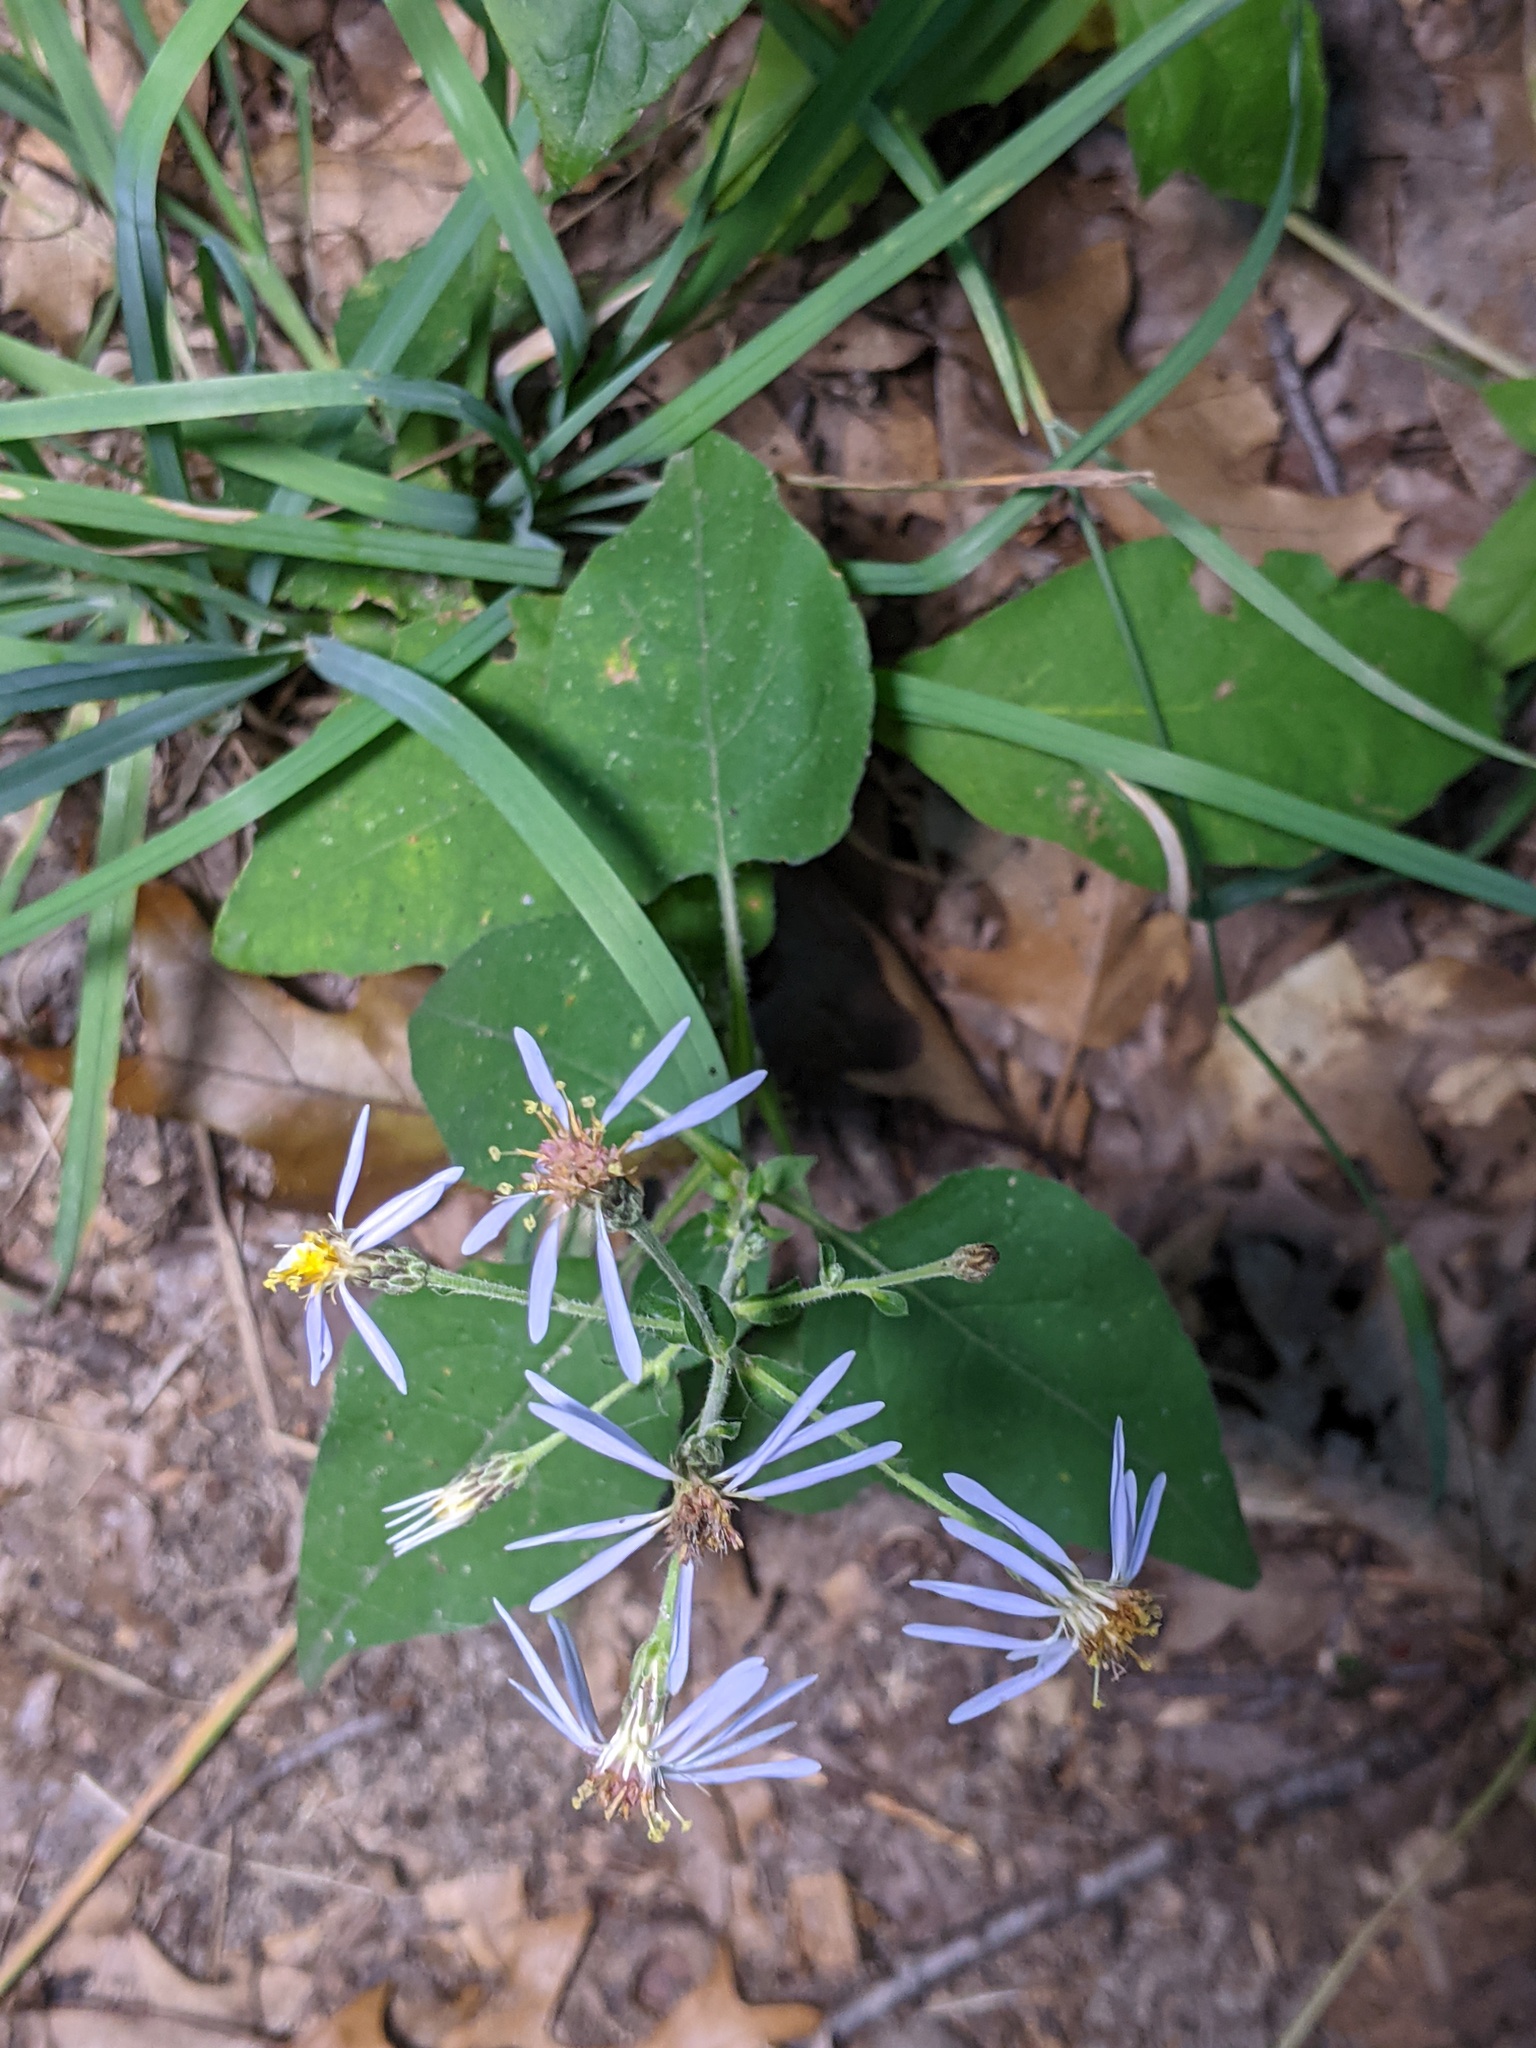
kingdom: Plantae
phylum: Tracheophyta
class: Magnoliopsida
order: Asterales
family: Asteraceae
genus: Eurybia
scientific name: Eurybia macrophylla
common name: Big-leaved aster
